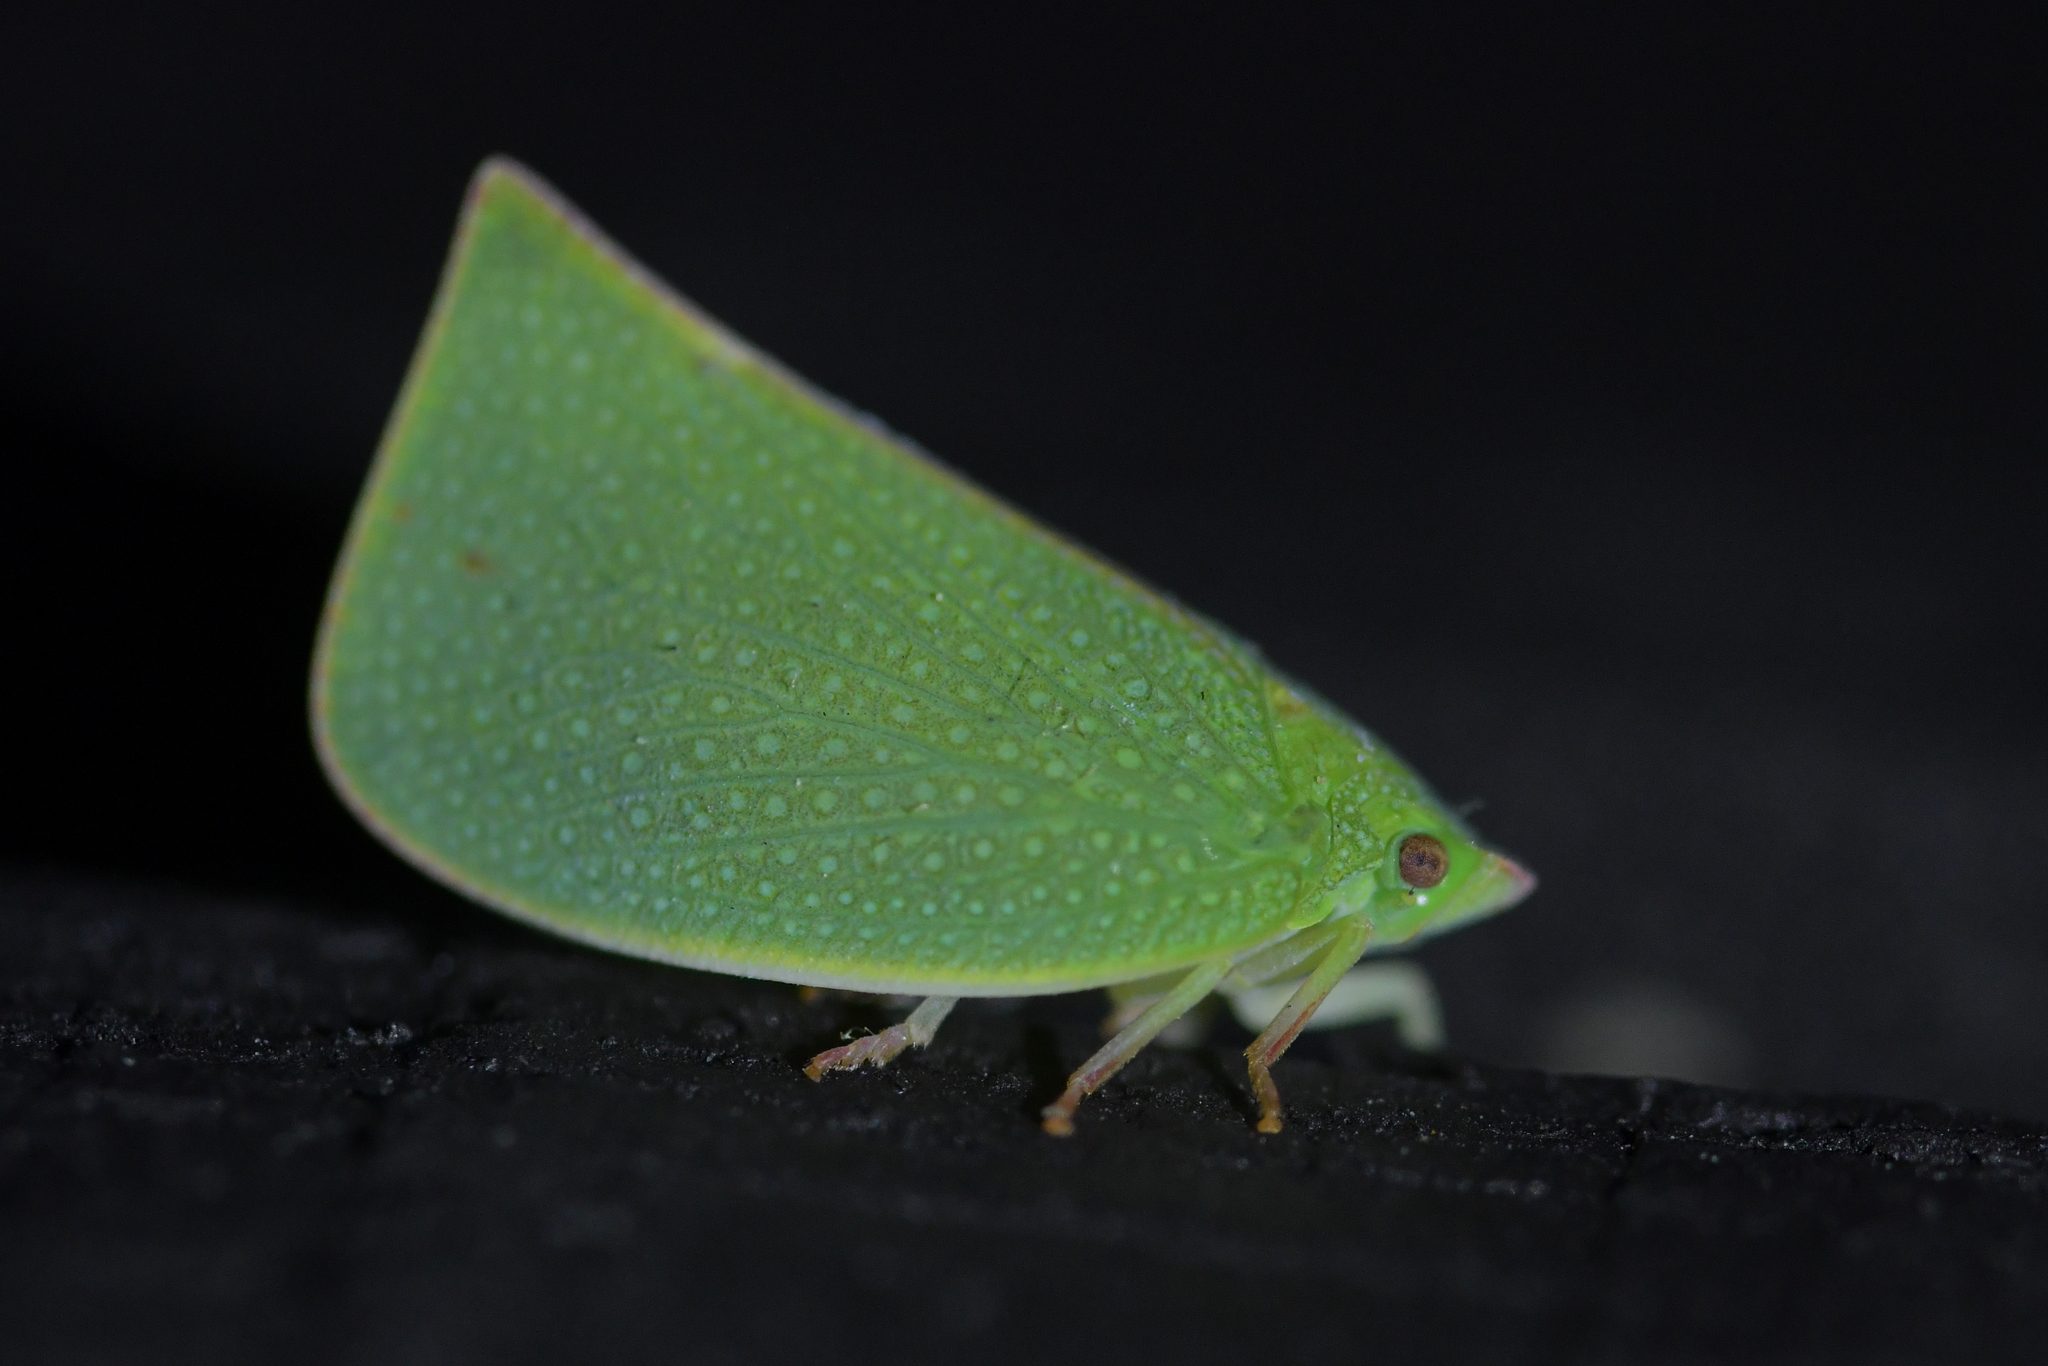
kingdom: Animalia
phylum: Arthropoda
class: Insecta
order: Hemiptera
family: Flatidae
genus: Siphanta
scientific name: Siphanta acuta
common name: Torpedo bug
